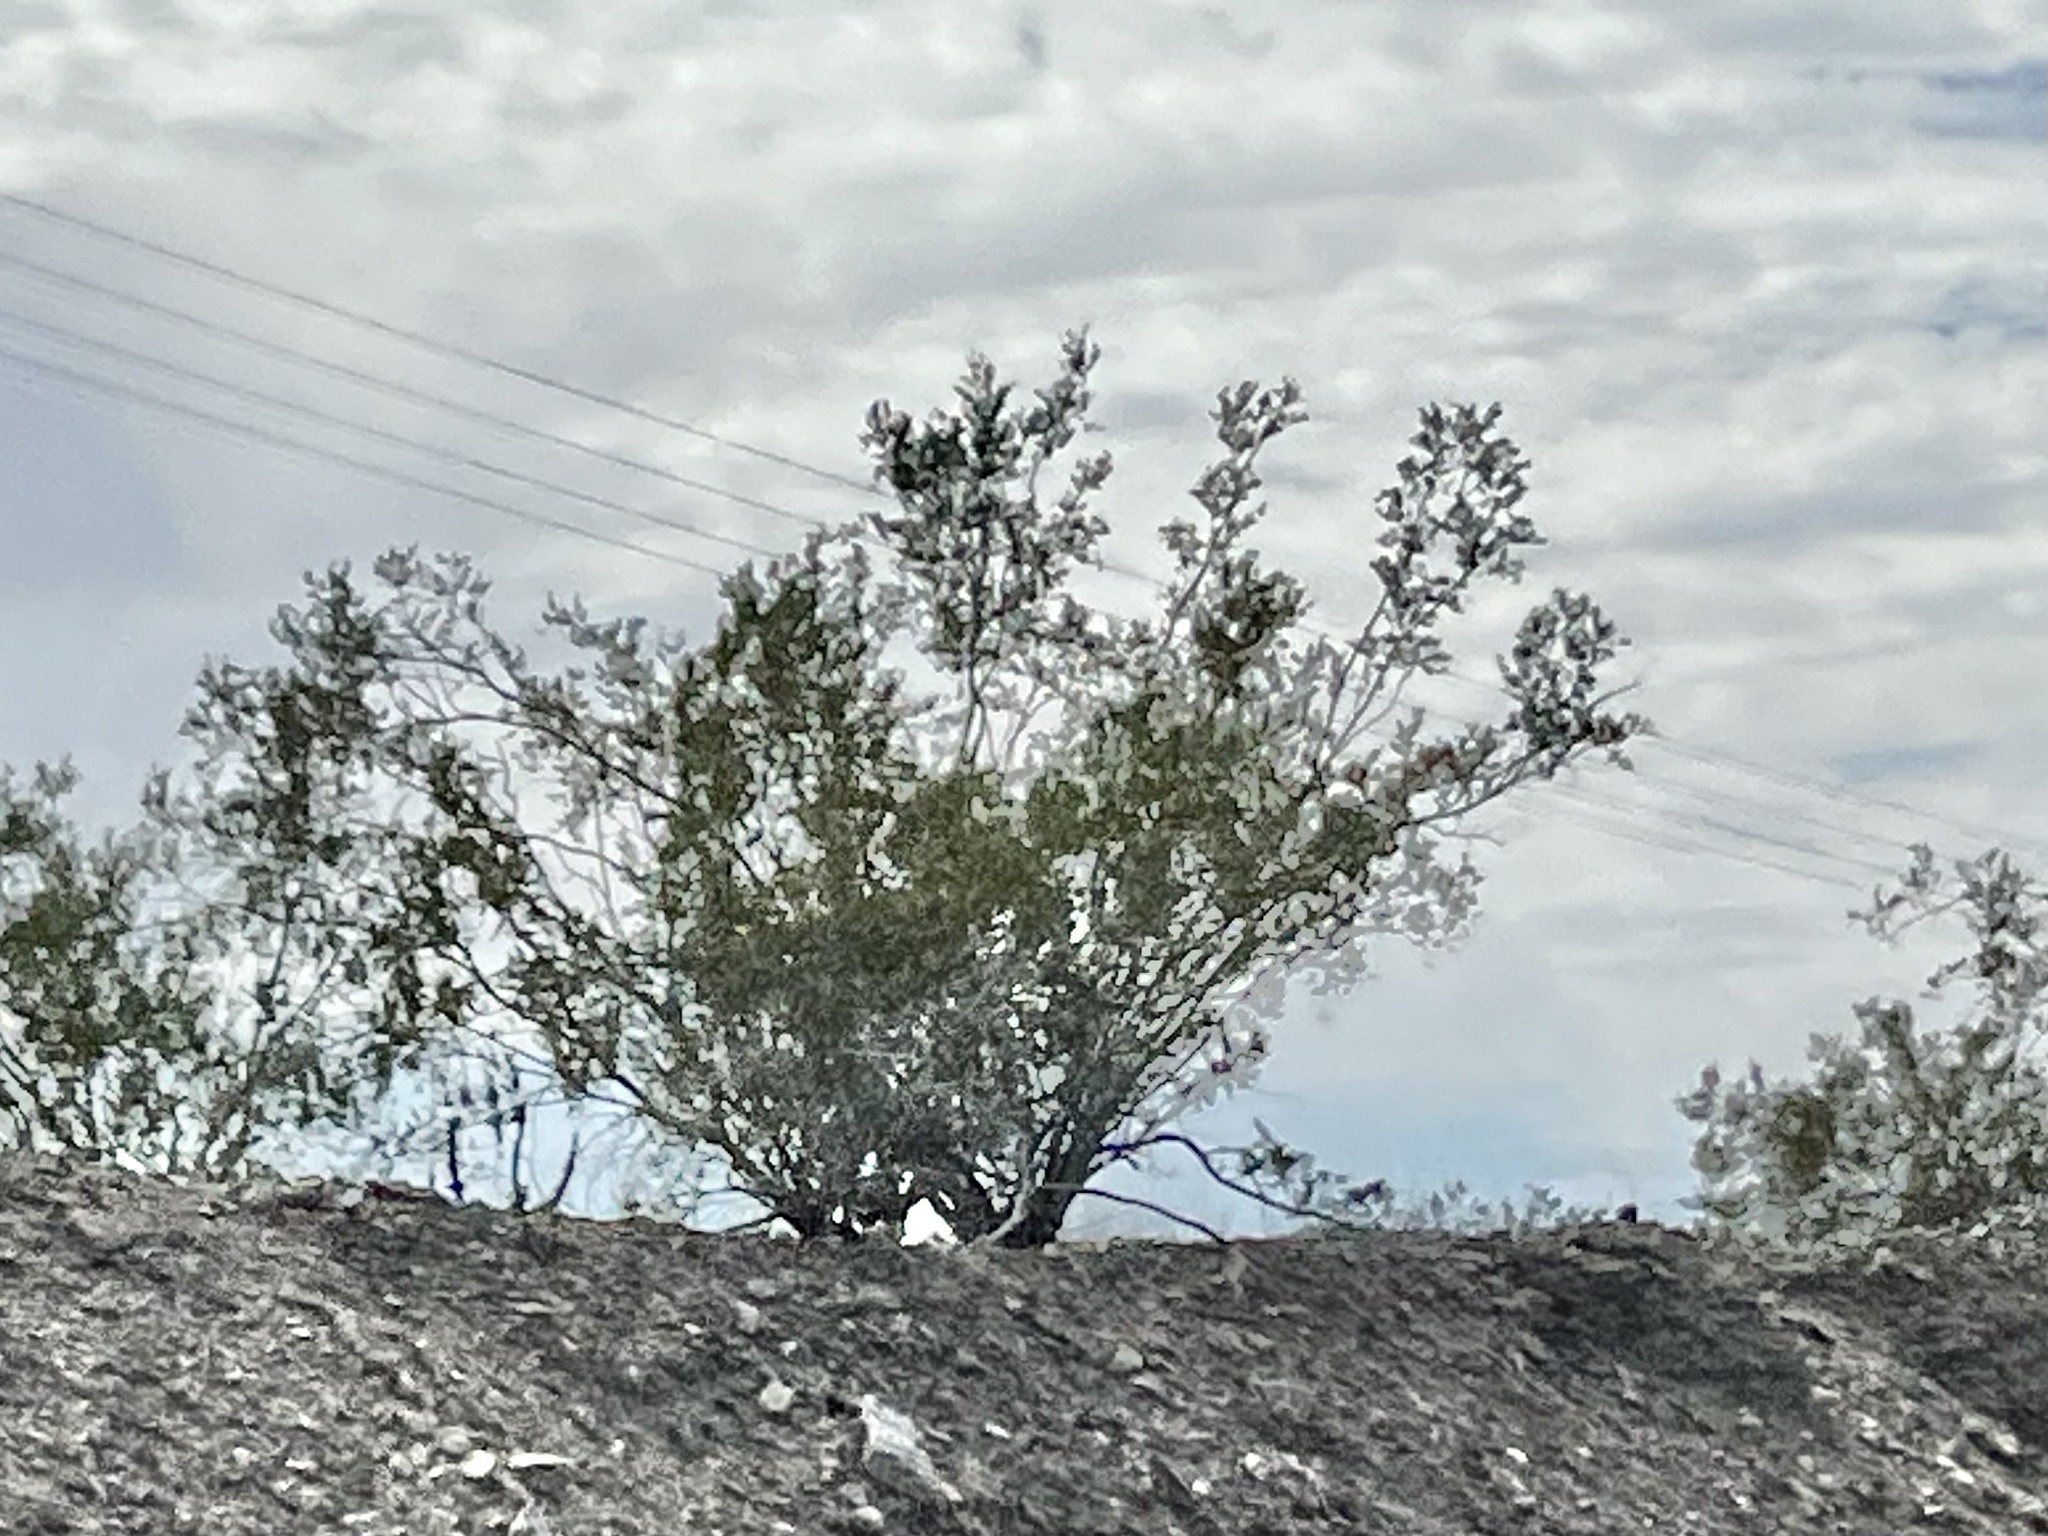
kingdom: Plantae
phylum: Tracheophyta
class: Magnoliopsida
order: Zygophyllales
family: Zygophyllaceae
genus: Larrea
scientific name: Larrea tridentata
